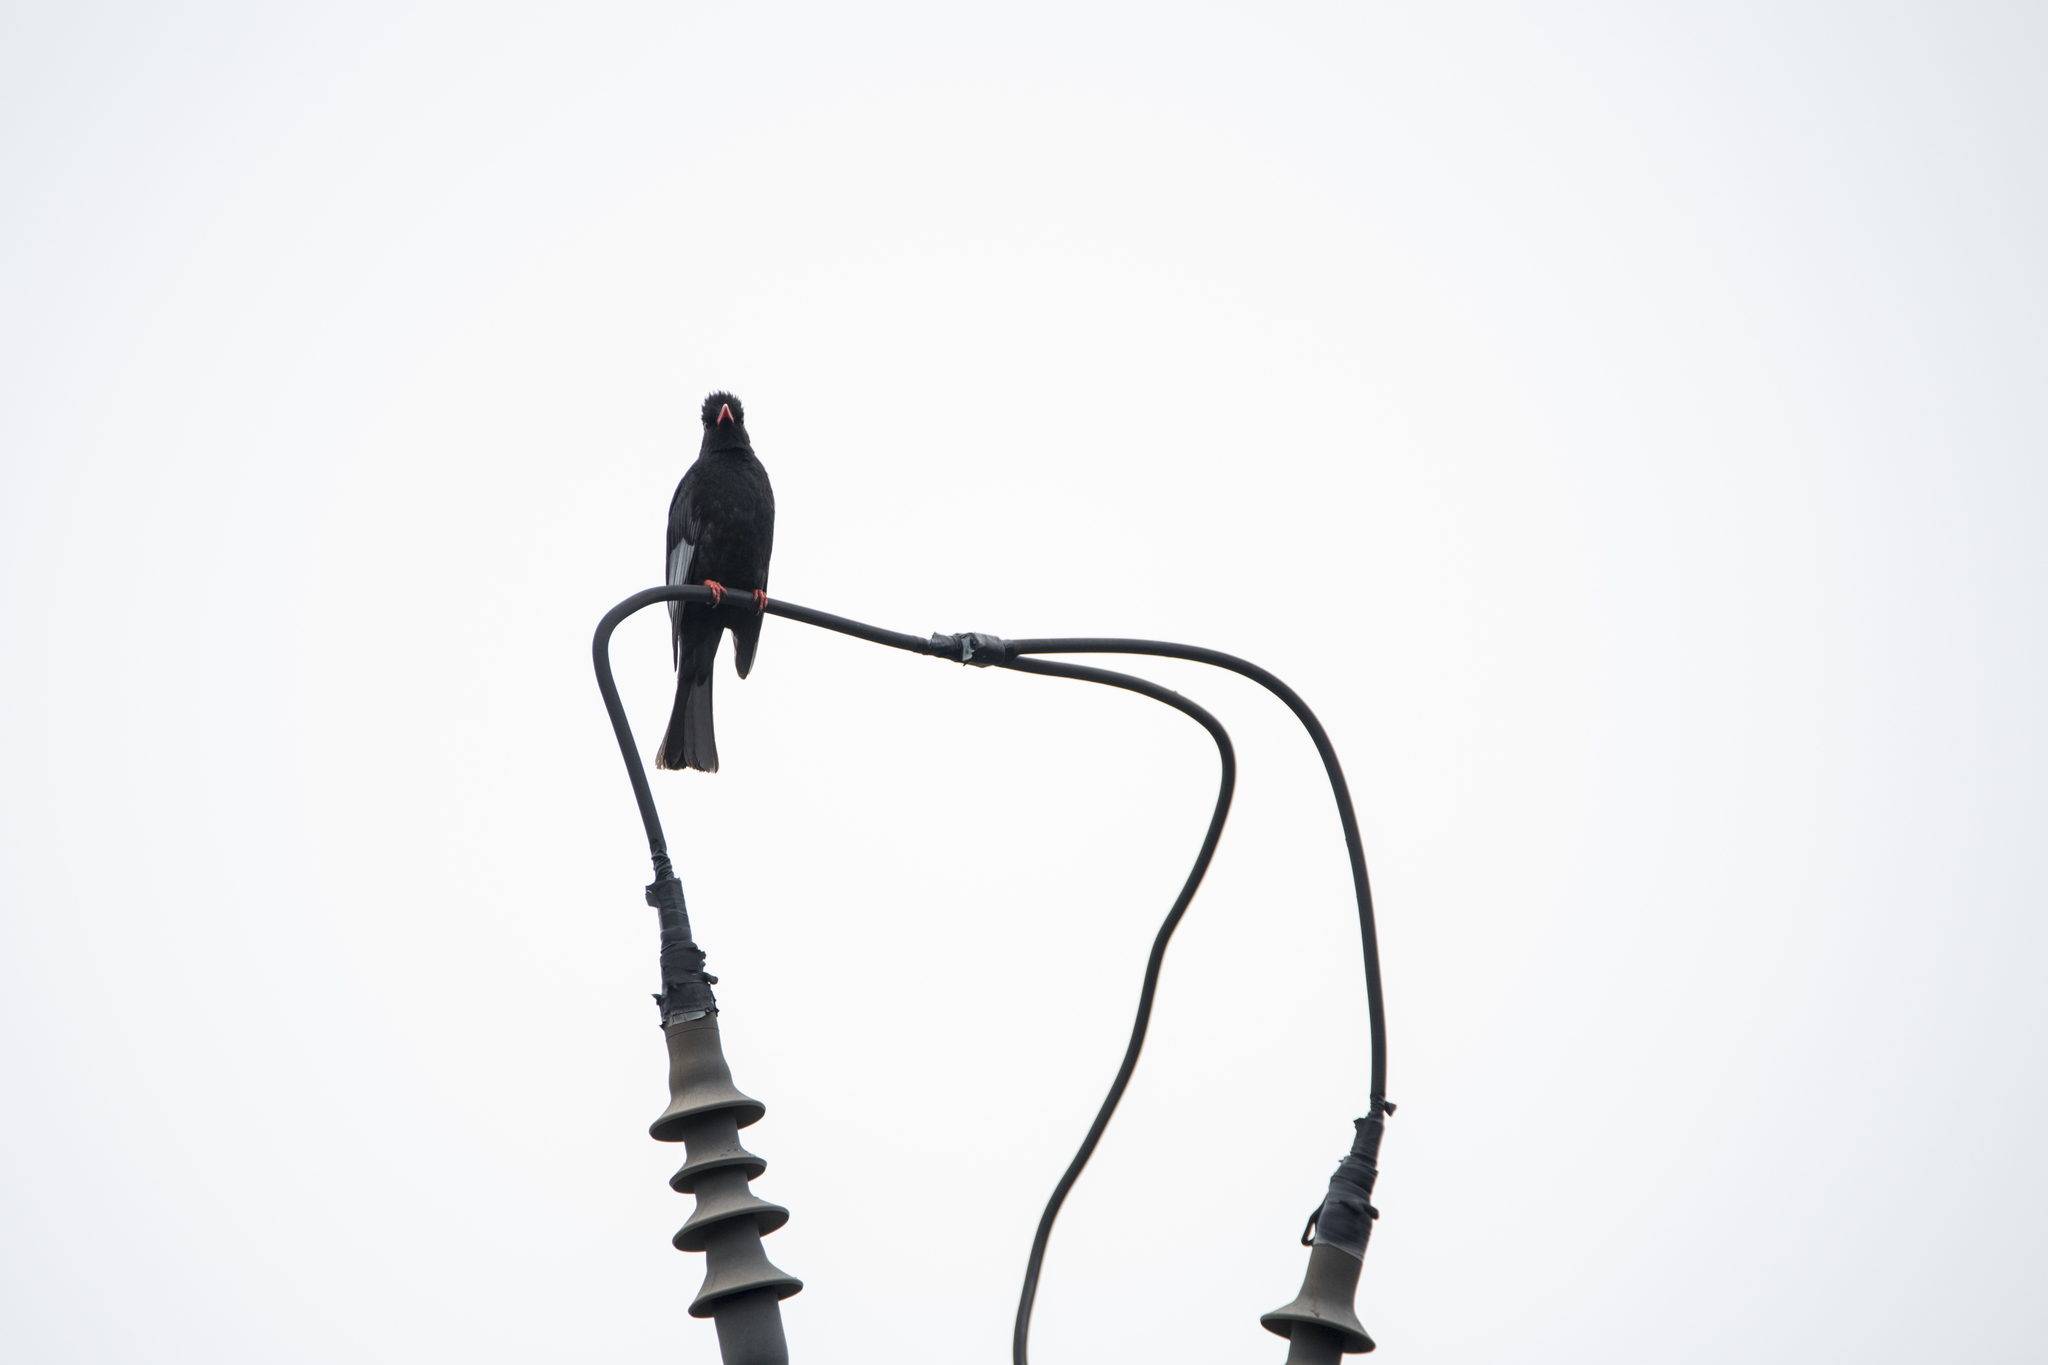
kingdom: Animalia
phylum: Chordata
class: Aves
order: Passeriformes
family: Pycnonotidae
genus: Hypsipetes
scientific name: Hypsipetes leucocephalus
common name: Black bulbul
